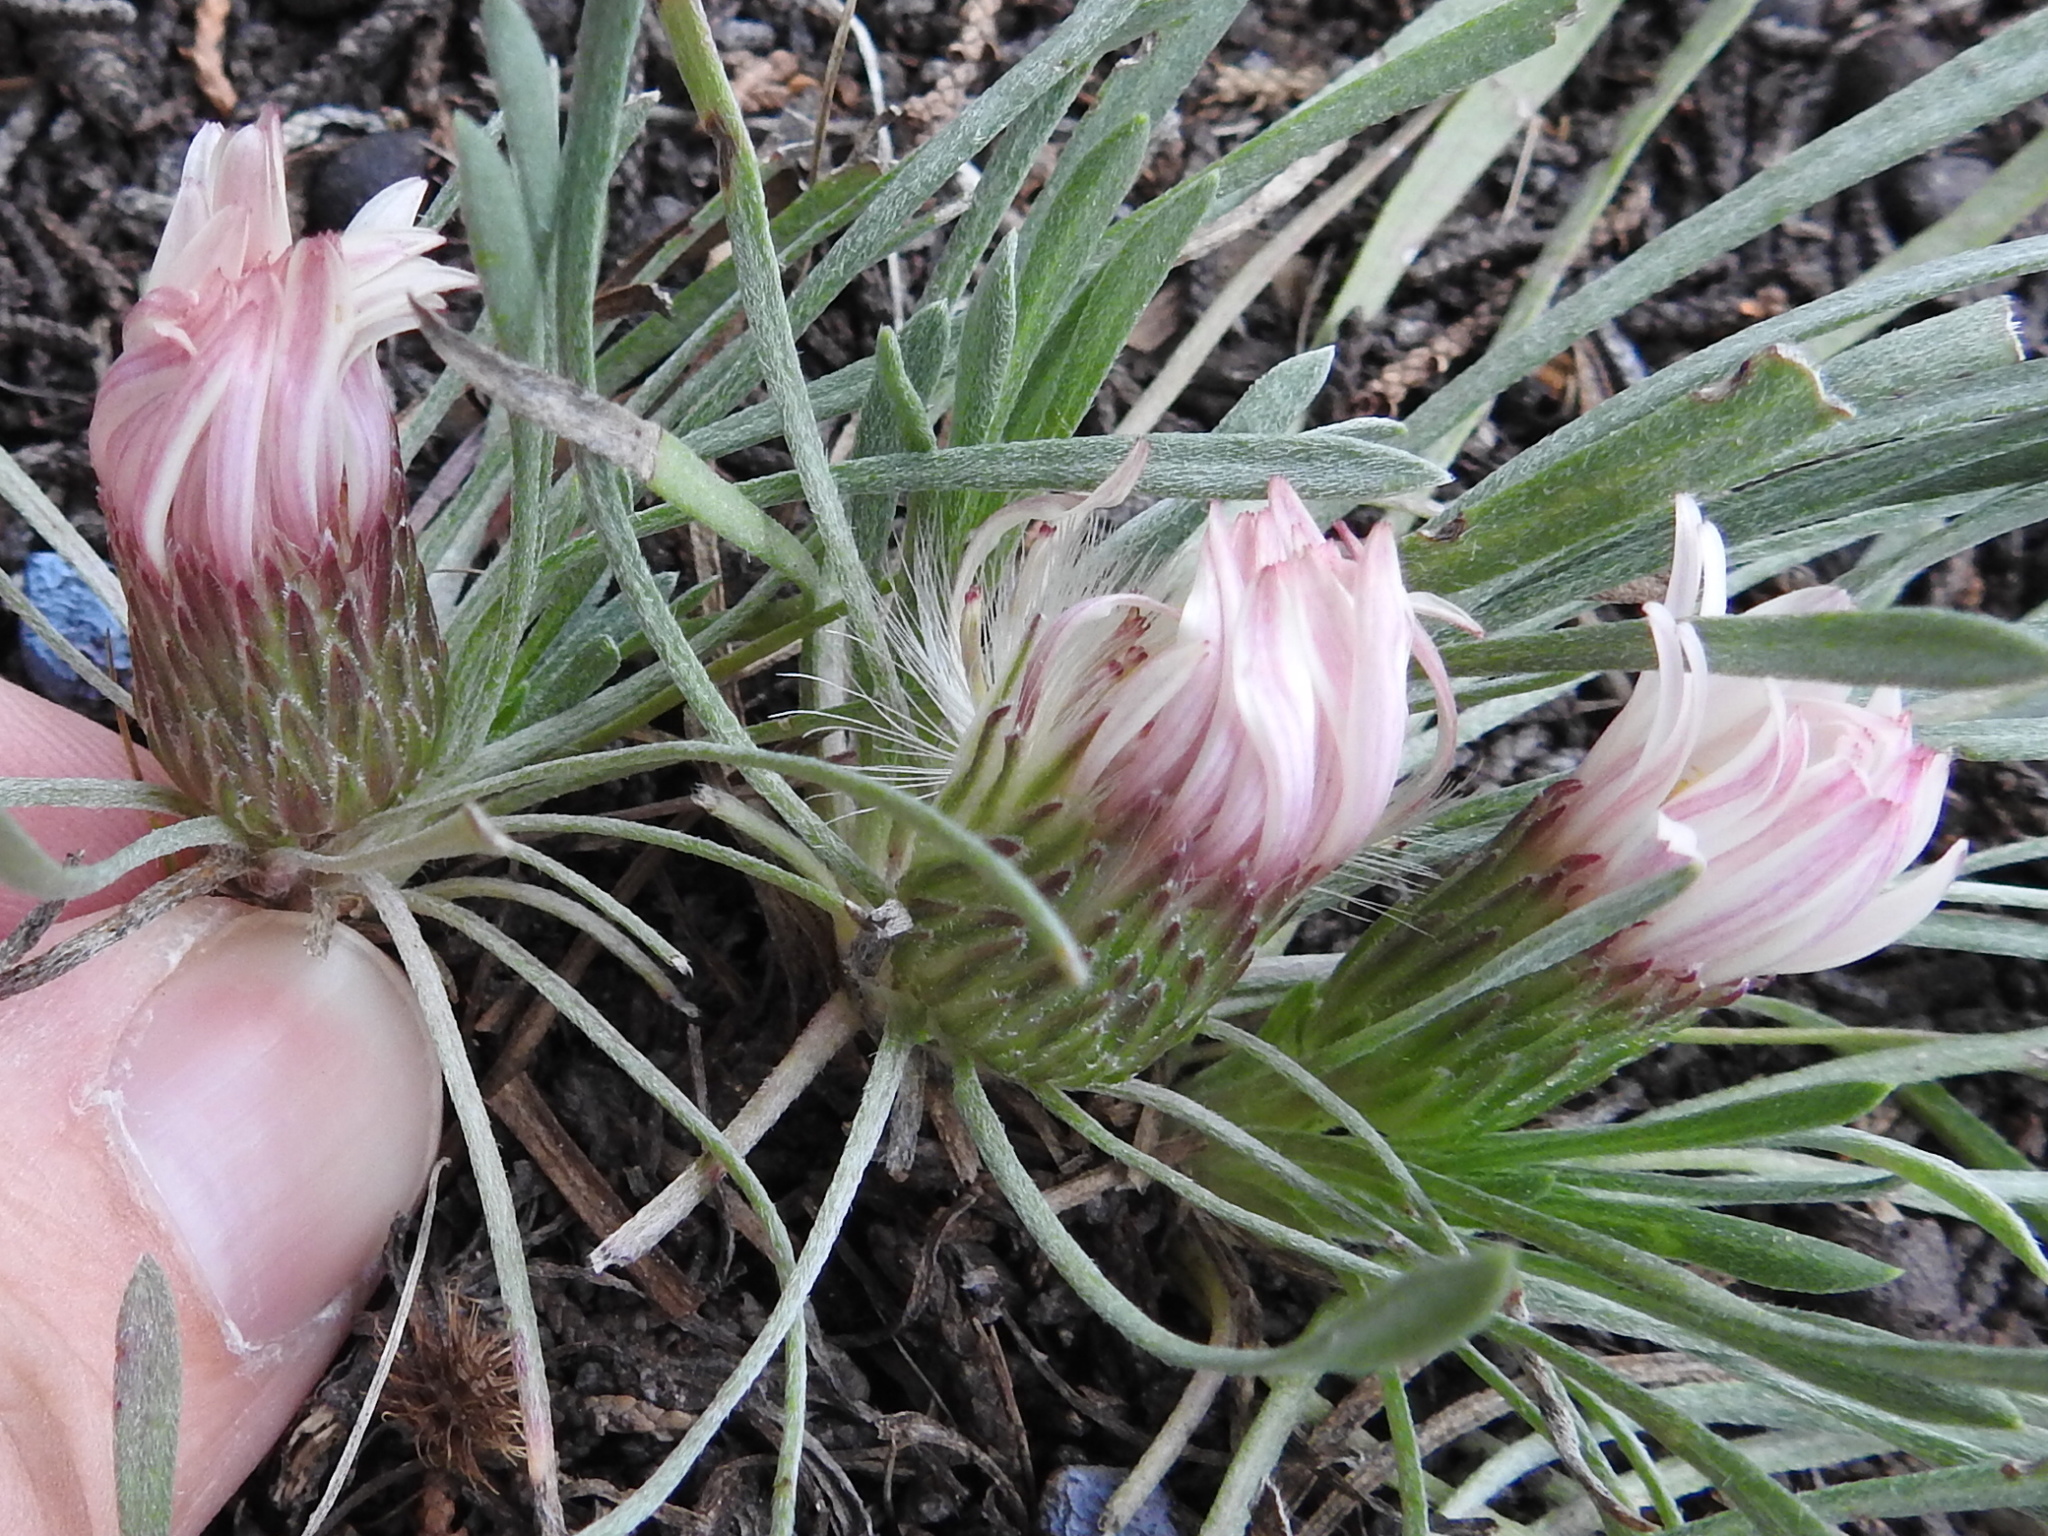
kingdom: Plantae
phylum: Tracheophyta
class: Magnoliopsida
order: Asterales
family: Asteraceae
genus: Townsendia
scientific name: Townsendia exscapa
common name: Dwarf townsendia
